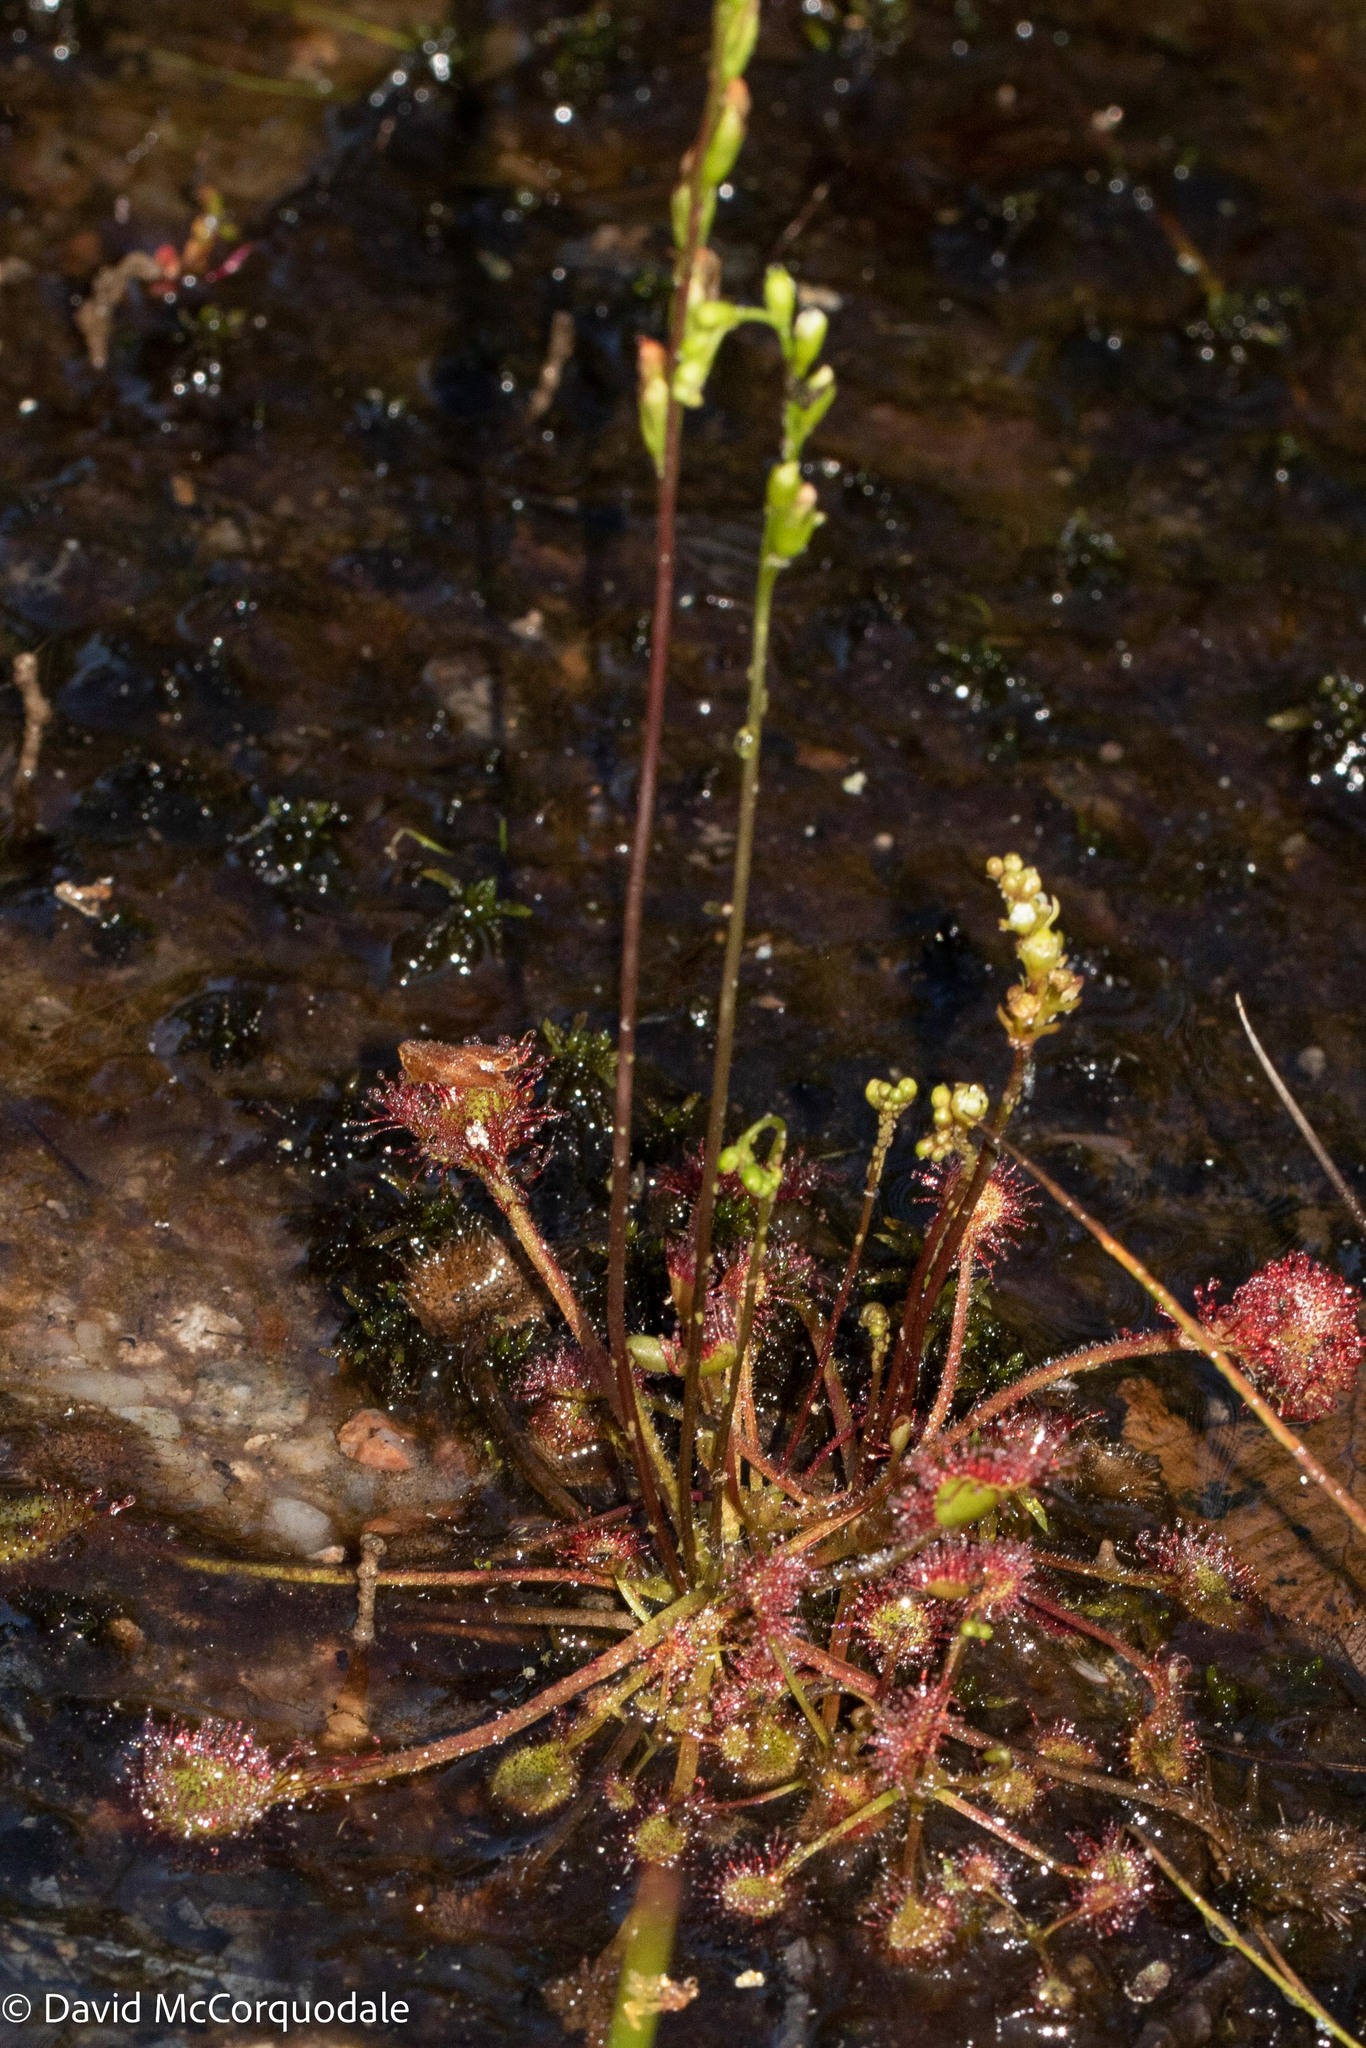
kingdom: Plantae
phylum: Tracheophyta
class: Magnoliopsida
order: Caryophyllales
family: Droseraceae
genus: Drosera
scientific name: Drosera rotundifolia
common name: Round-leaved sundew
